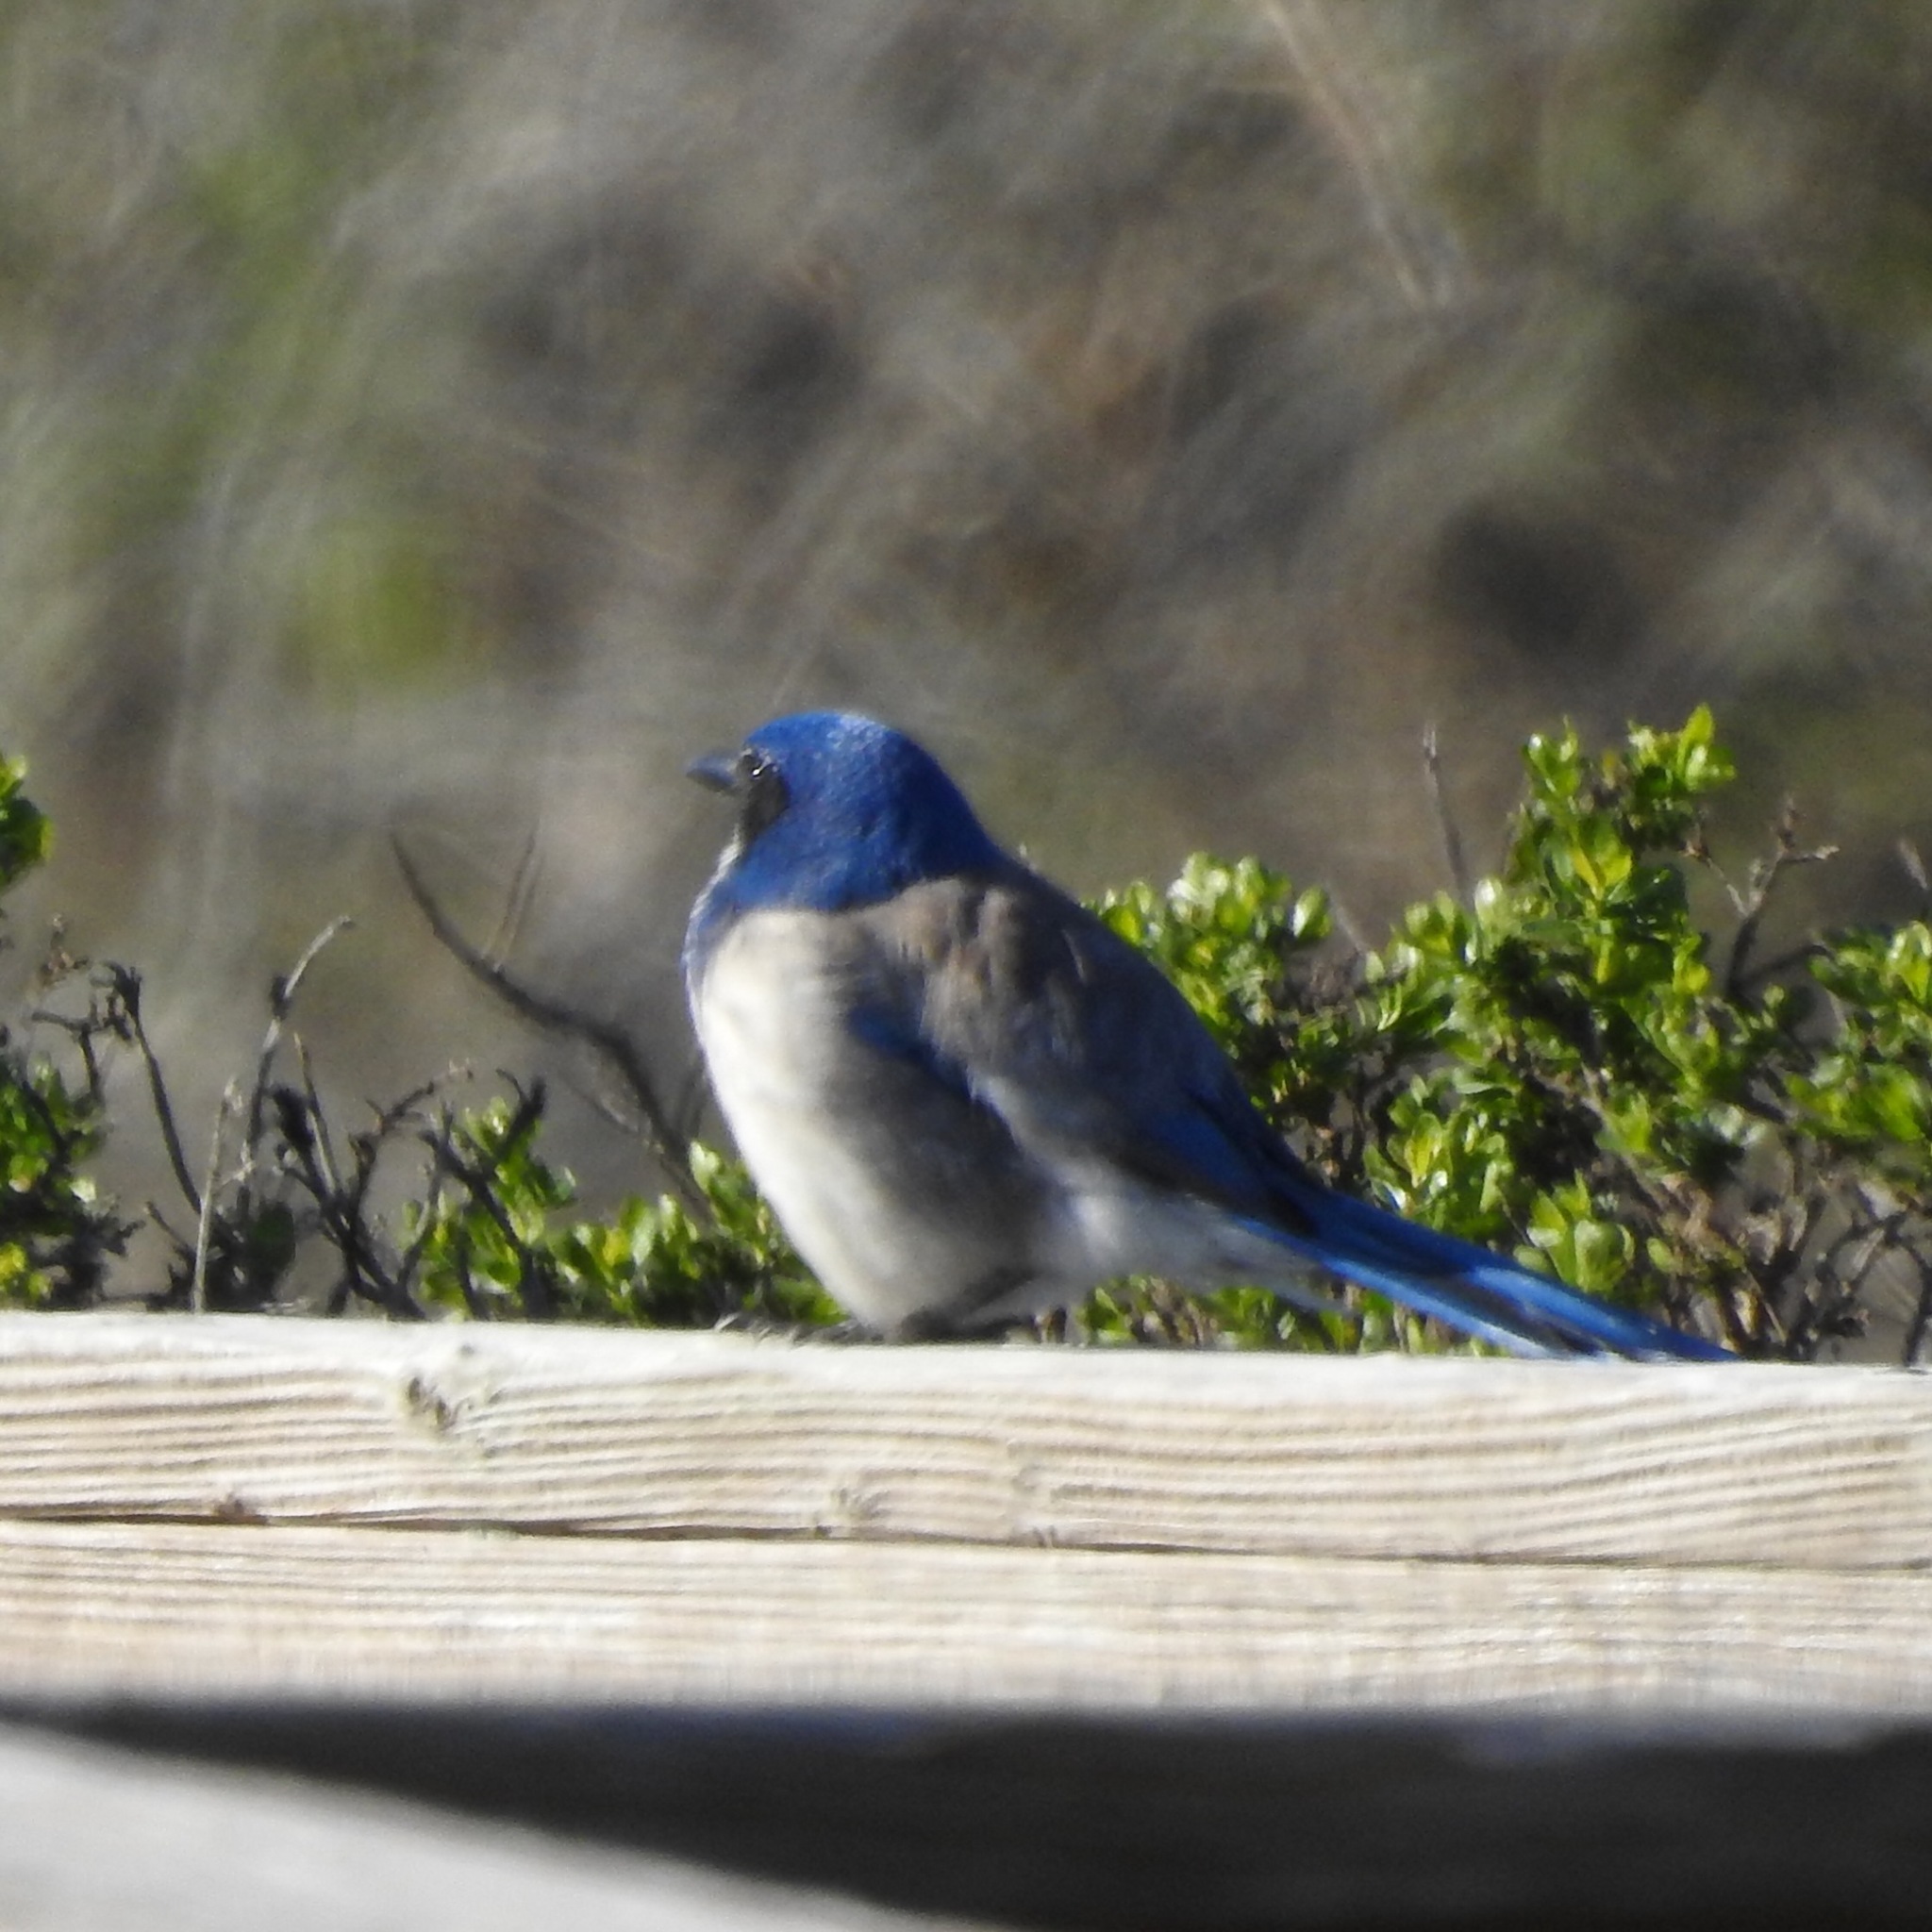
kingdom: Animalia
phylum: Chordata
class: Aves
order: Passeriformes
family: Corvidae
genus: Aphelocoma
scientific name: Aphelocoma californica
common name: California scrub-jay
